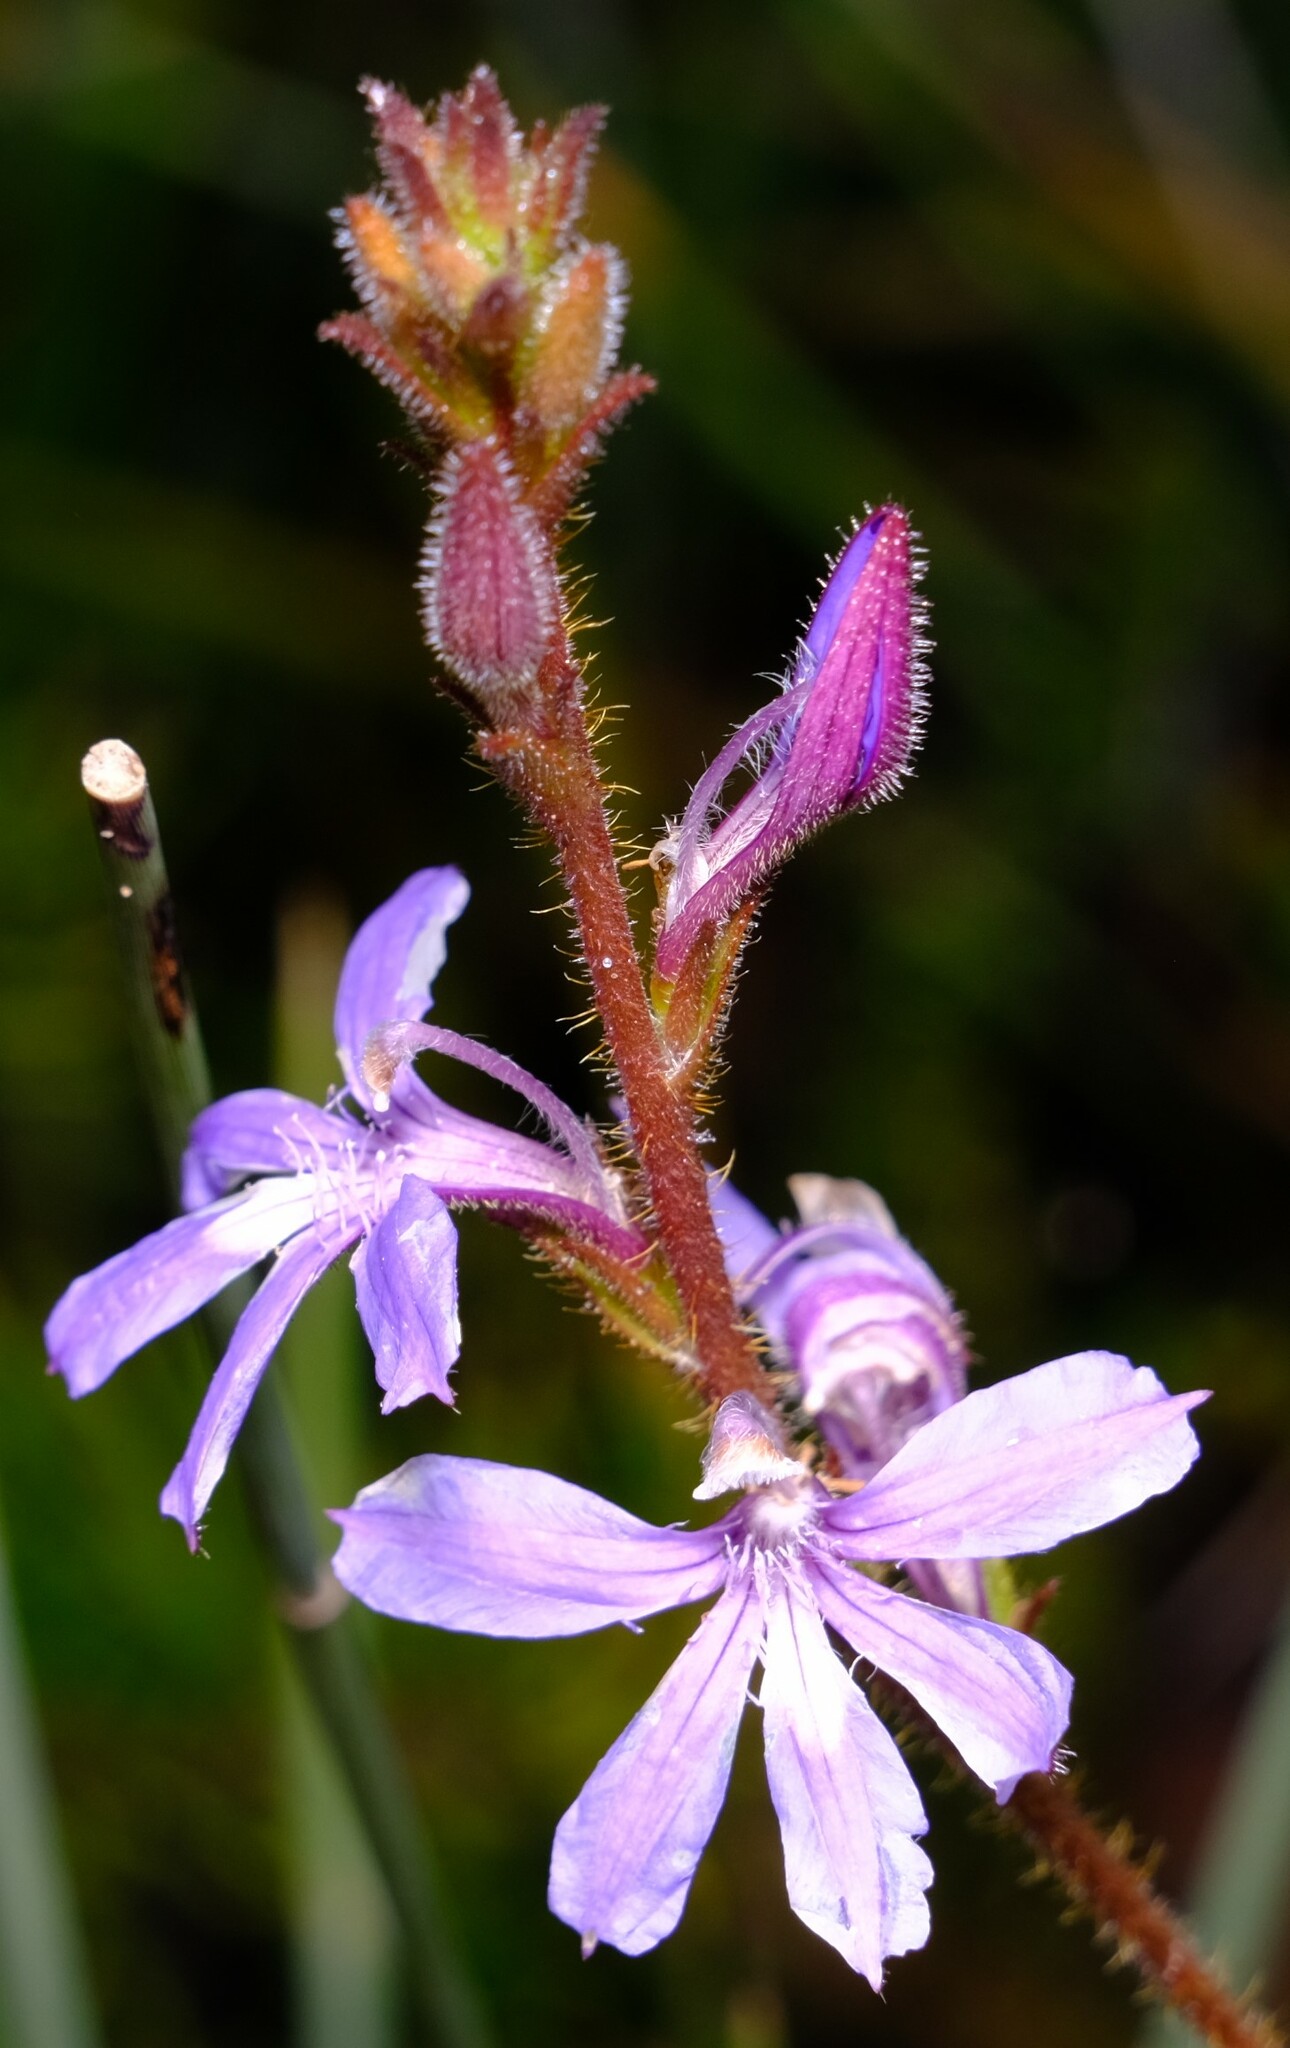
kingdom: Plantae
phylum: Tracheophyta
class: Magnoliopsida
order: Asterales
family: Goodeniaceae
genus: Scaevola
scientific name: Scaevola glandulifera
